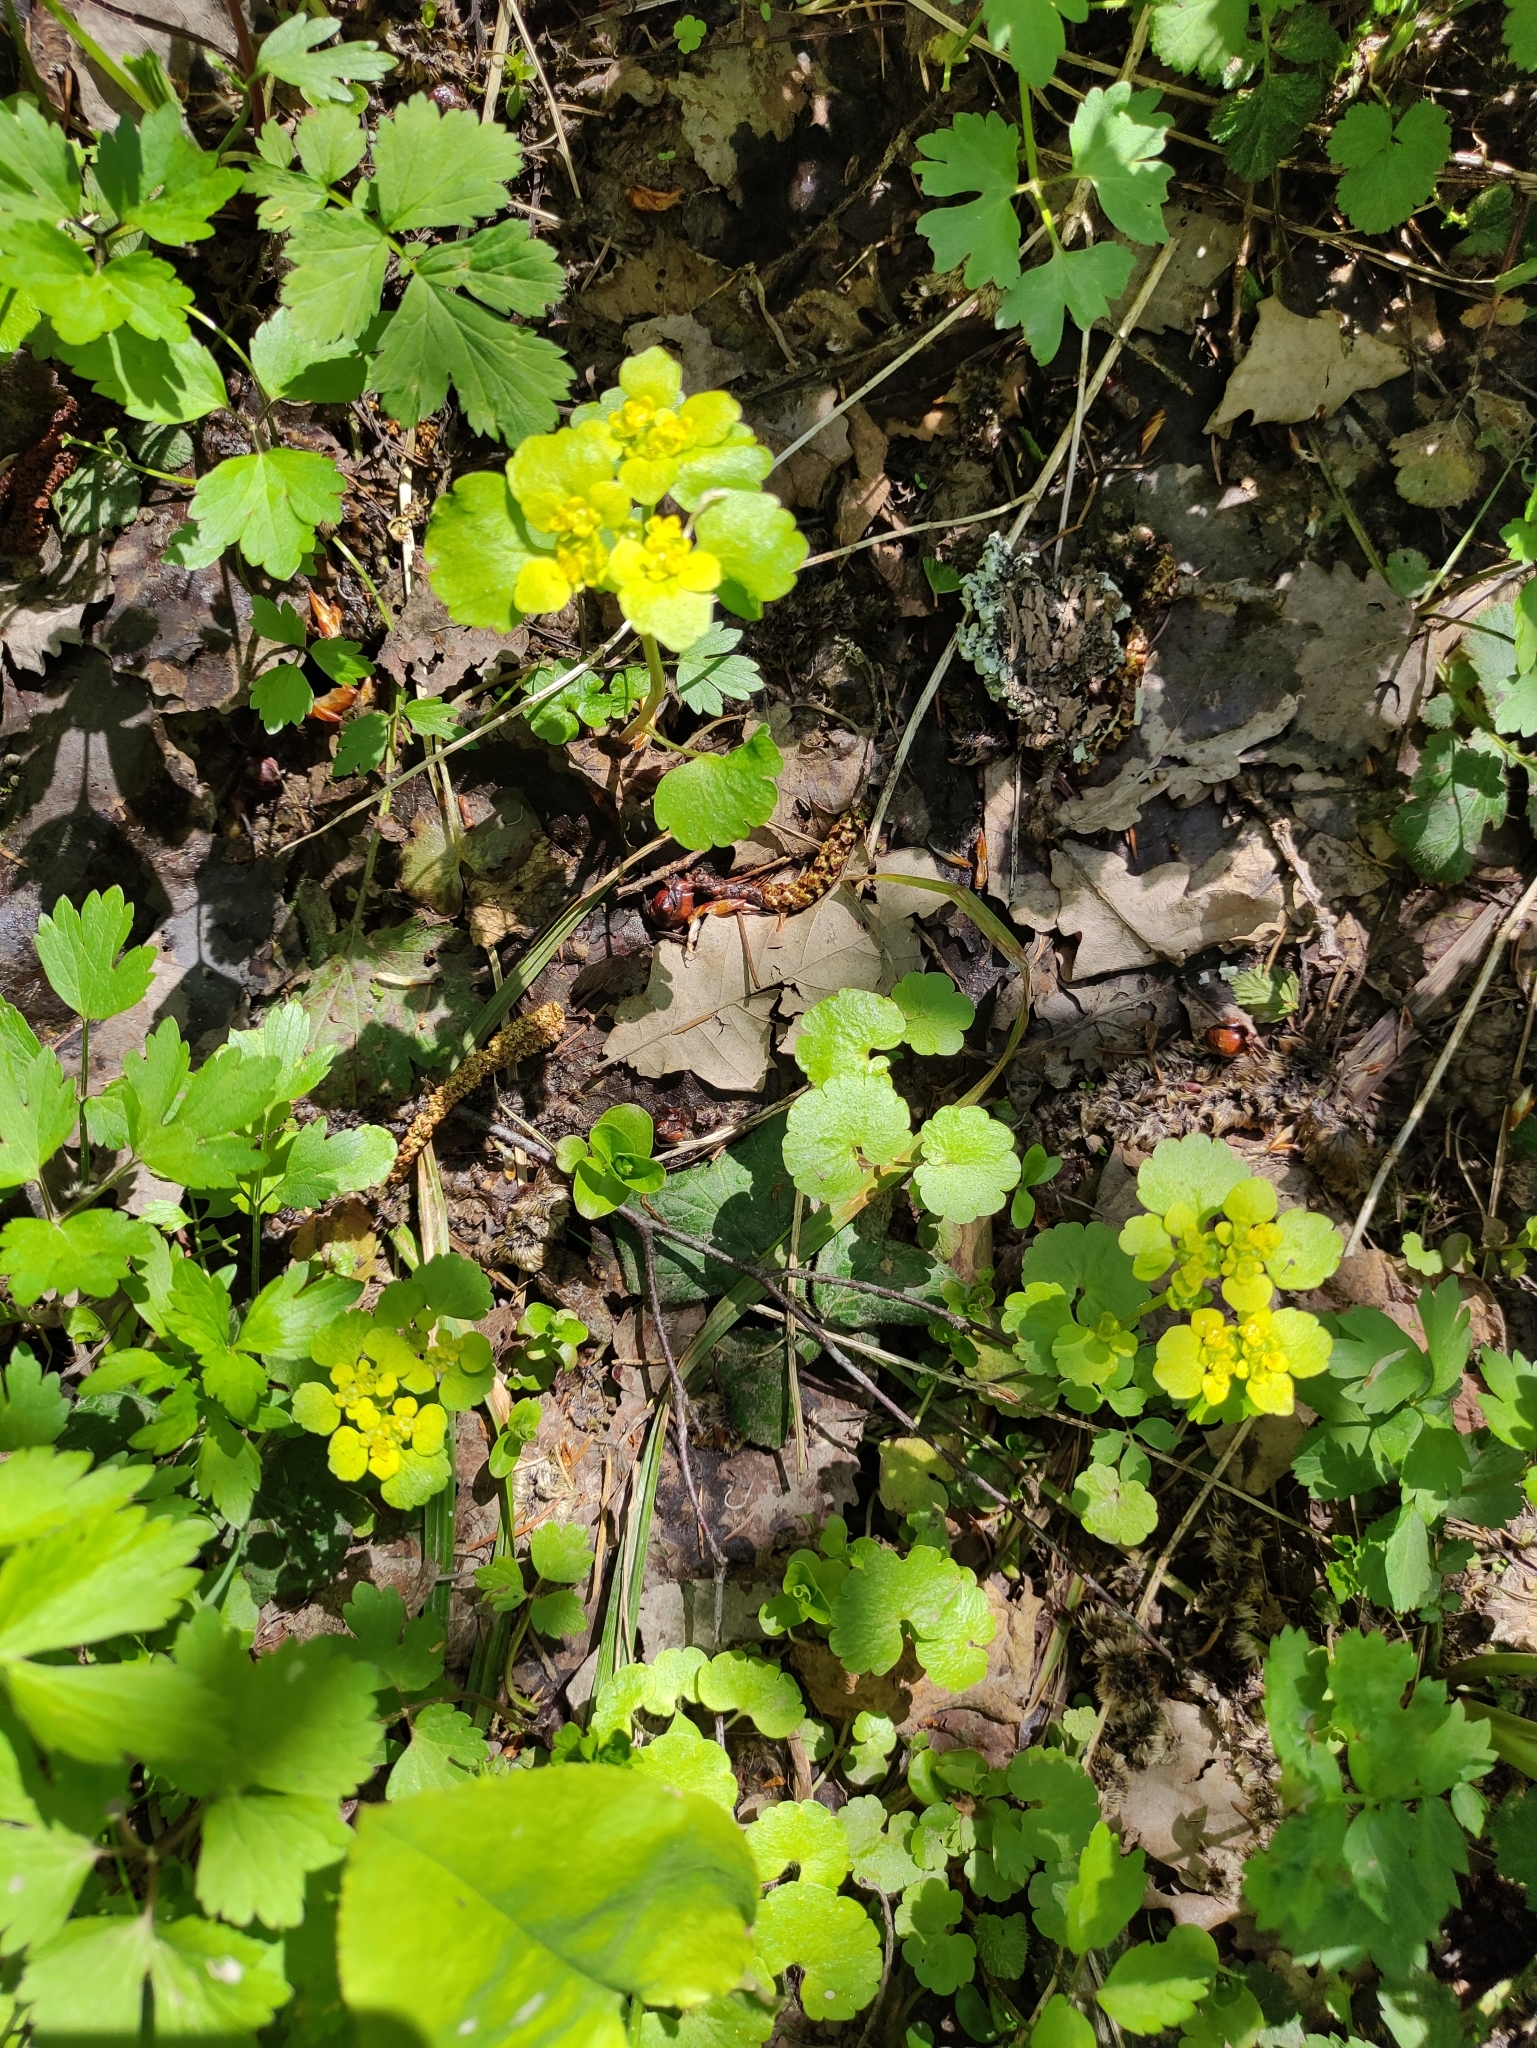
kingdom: Plantae
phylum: Tracheophyta
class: Magnoliopsida
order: Saxifragales
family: Saxifragaceae
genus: Chrysosplenium
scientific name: Chrysosplenium alternifolium
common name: Alternate-leaved golden-saxifrage
